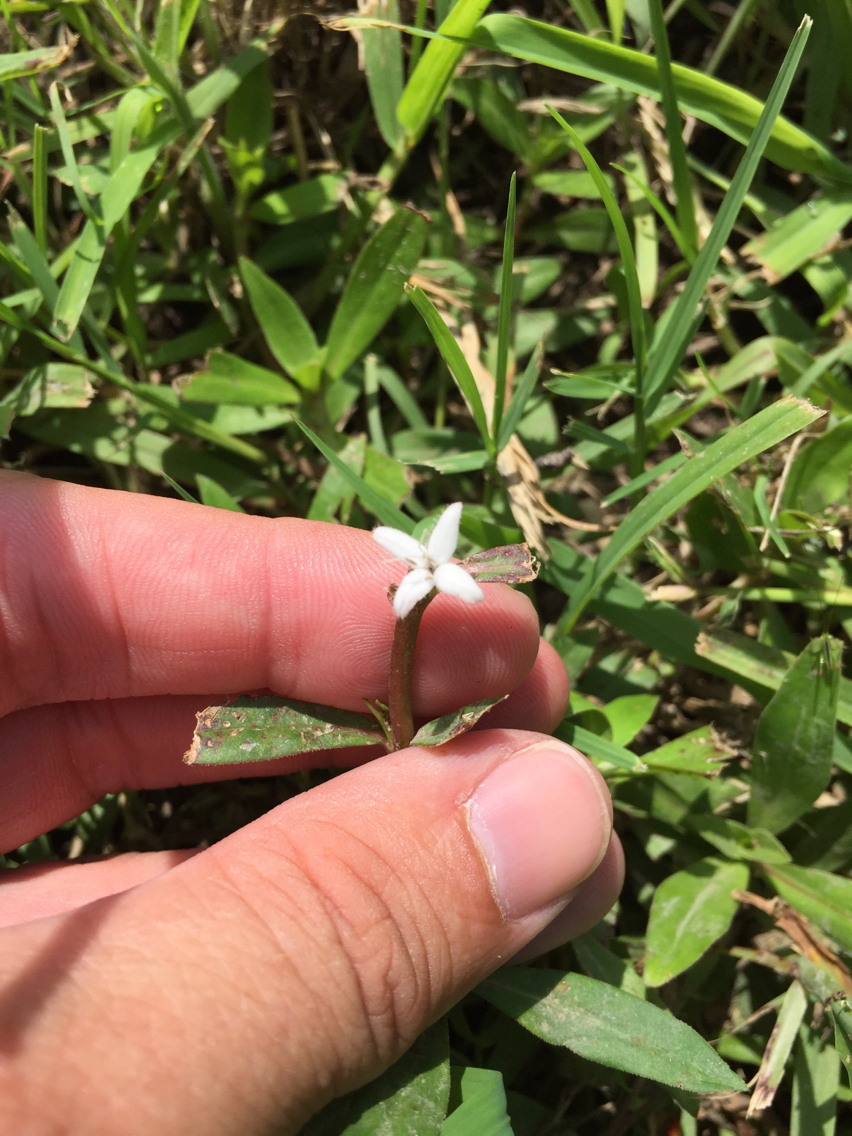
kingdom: Plantae
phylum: Tracheophyta
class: Magnoliopsida
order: Gentianales
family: Rubiaceae
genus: Diodia
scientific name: Diodia virginiana
